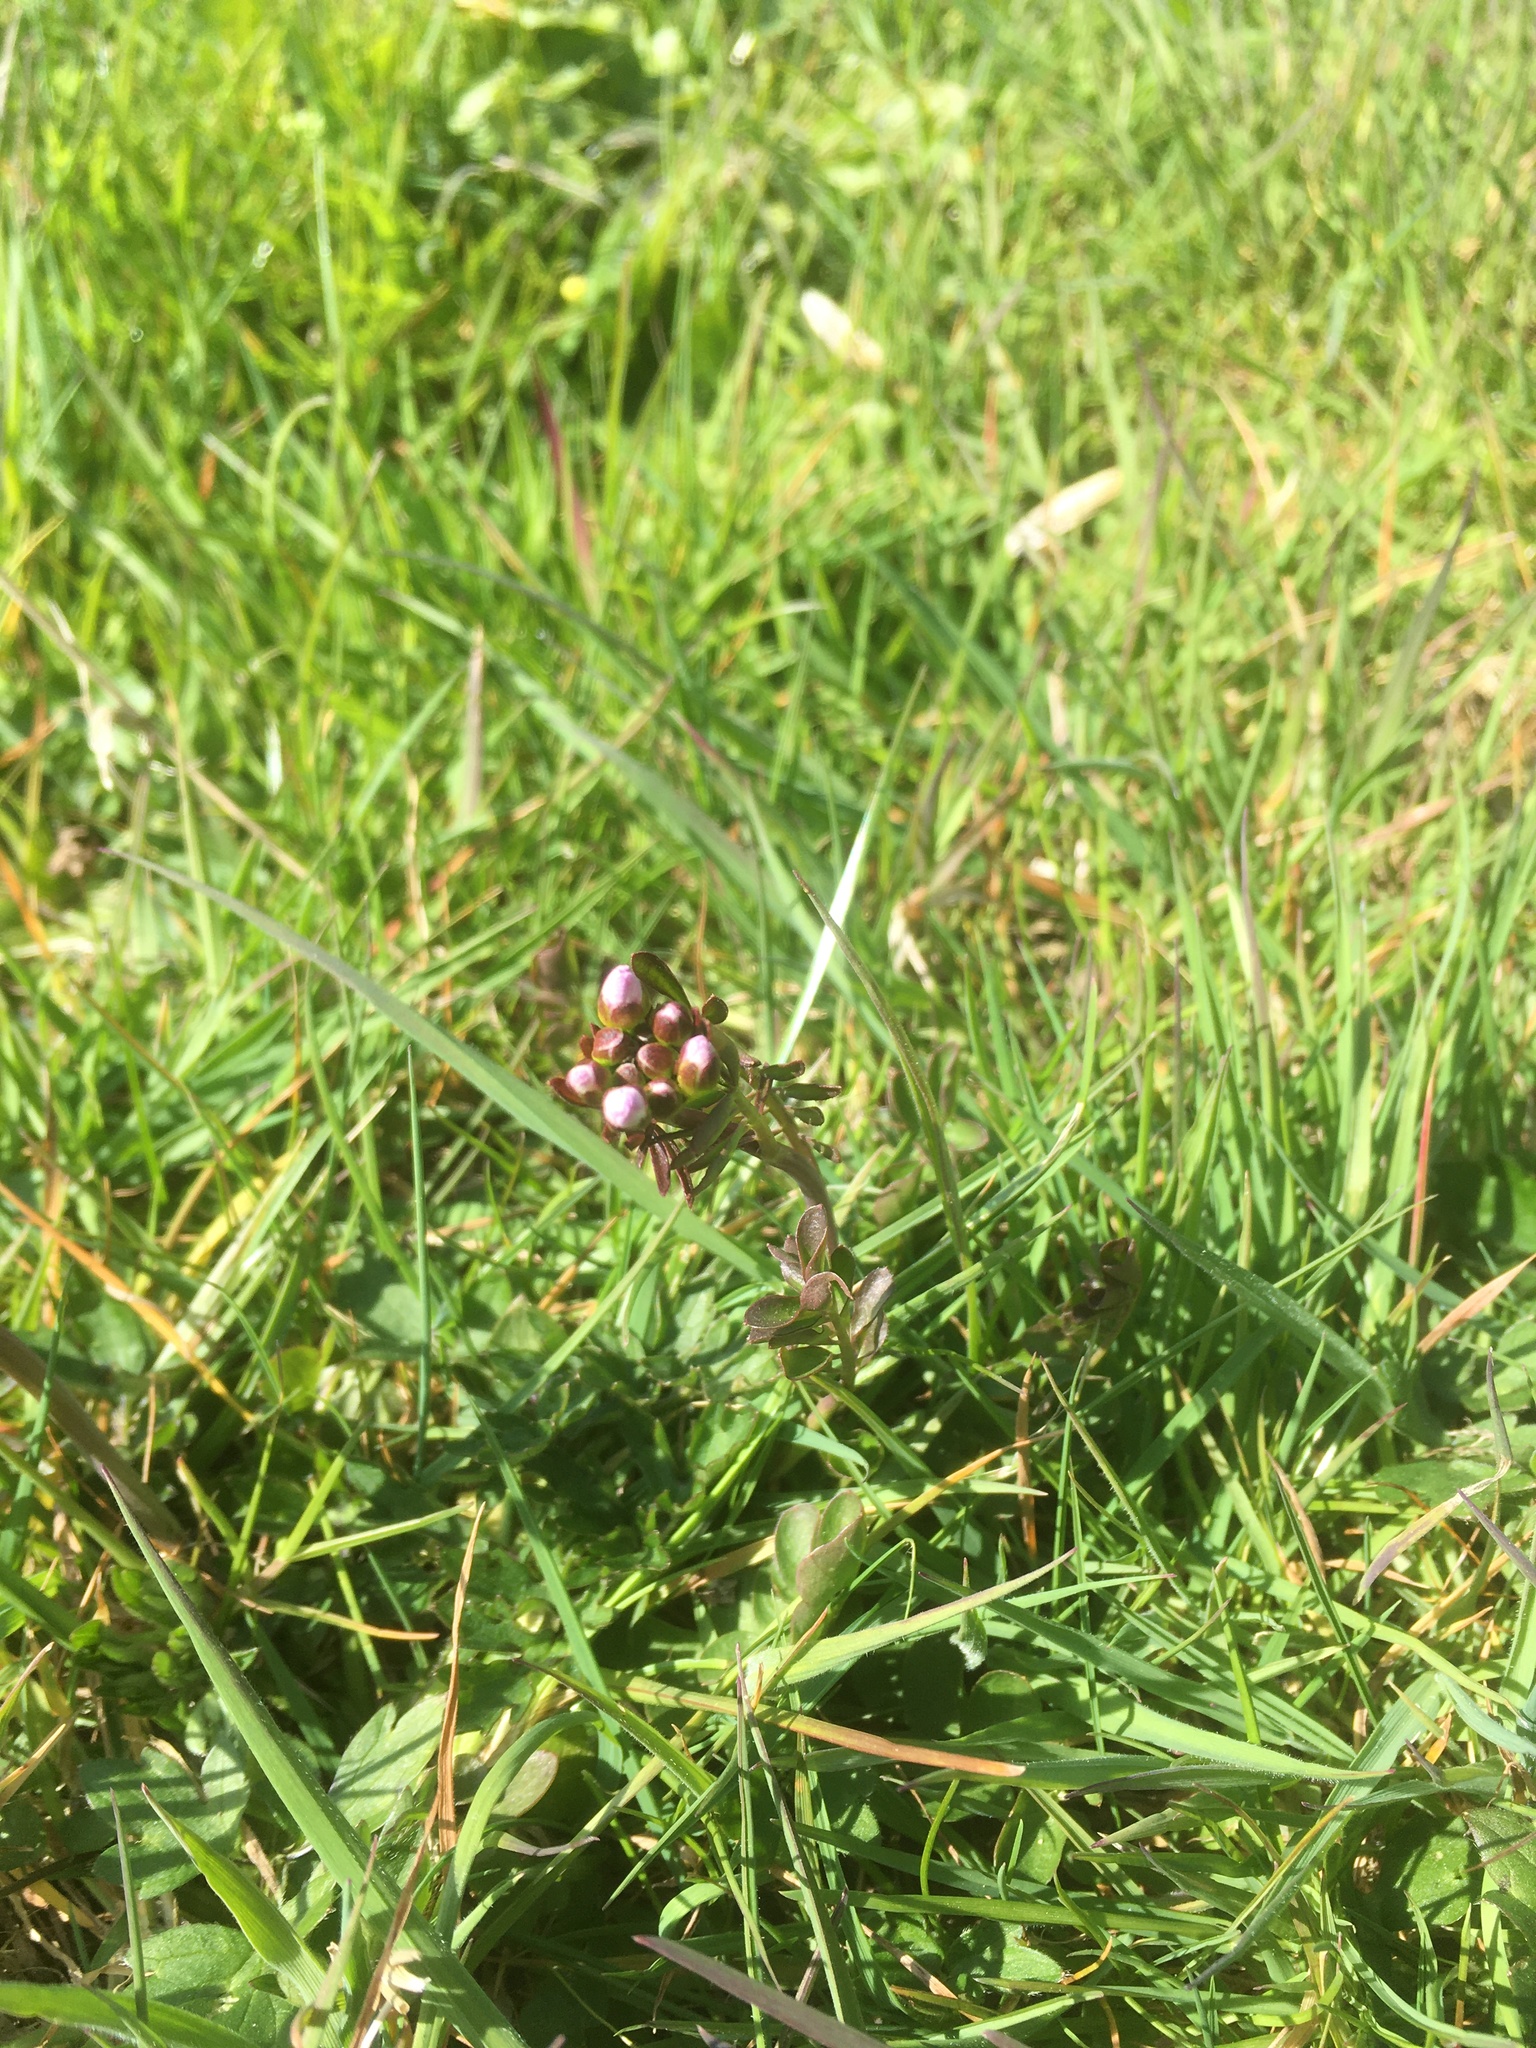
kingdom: Plantae
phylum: Tracheophyta
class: Magnoliopsida
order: Brassicales
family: Brassicaceae
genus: Cardamine
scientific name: Cardamine pratensis
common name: Cuckoo flower
